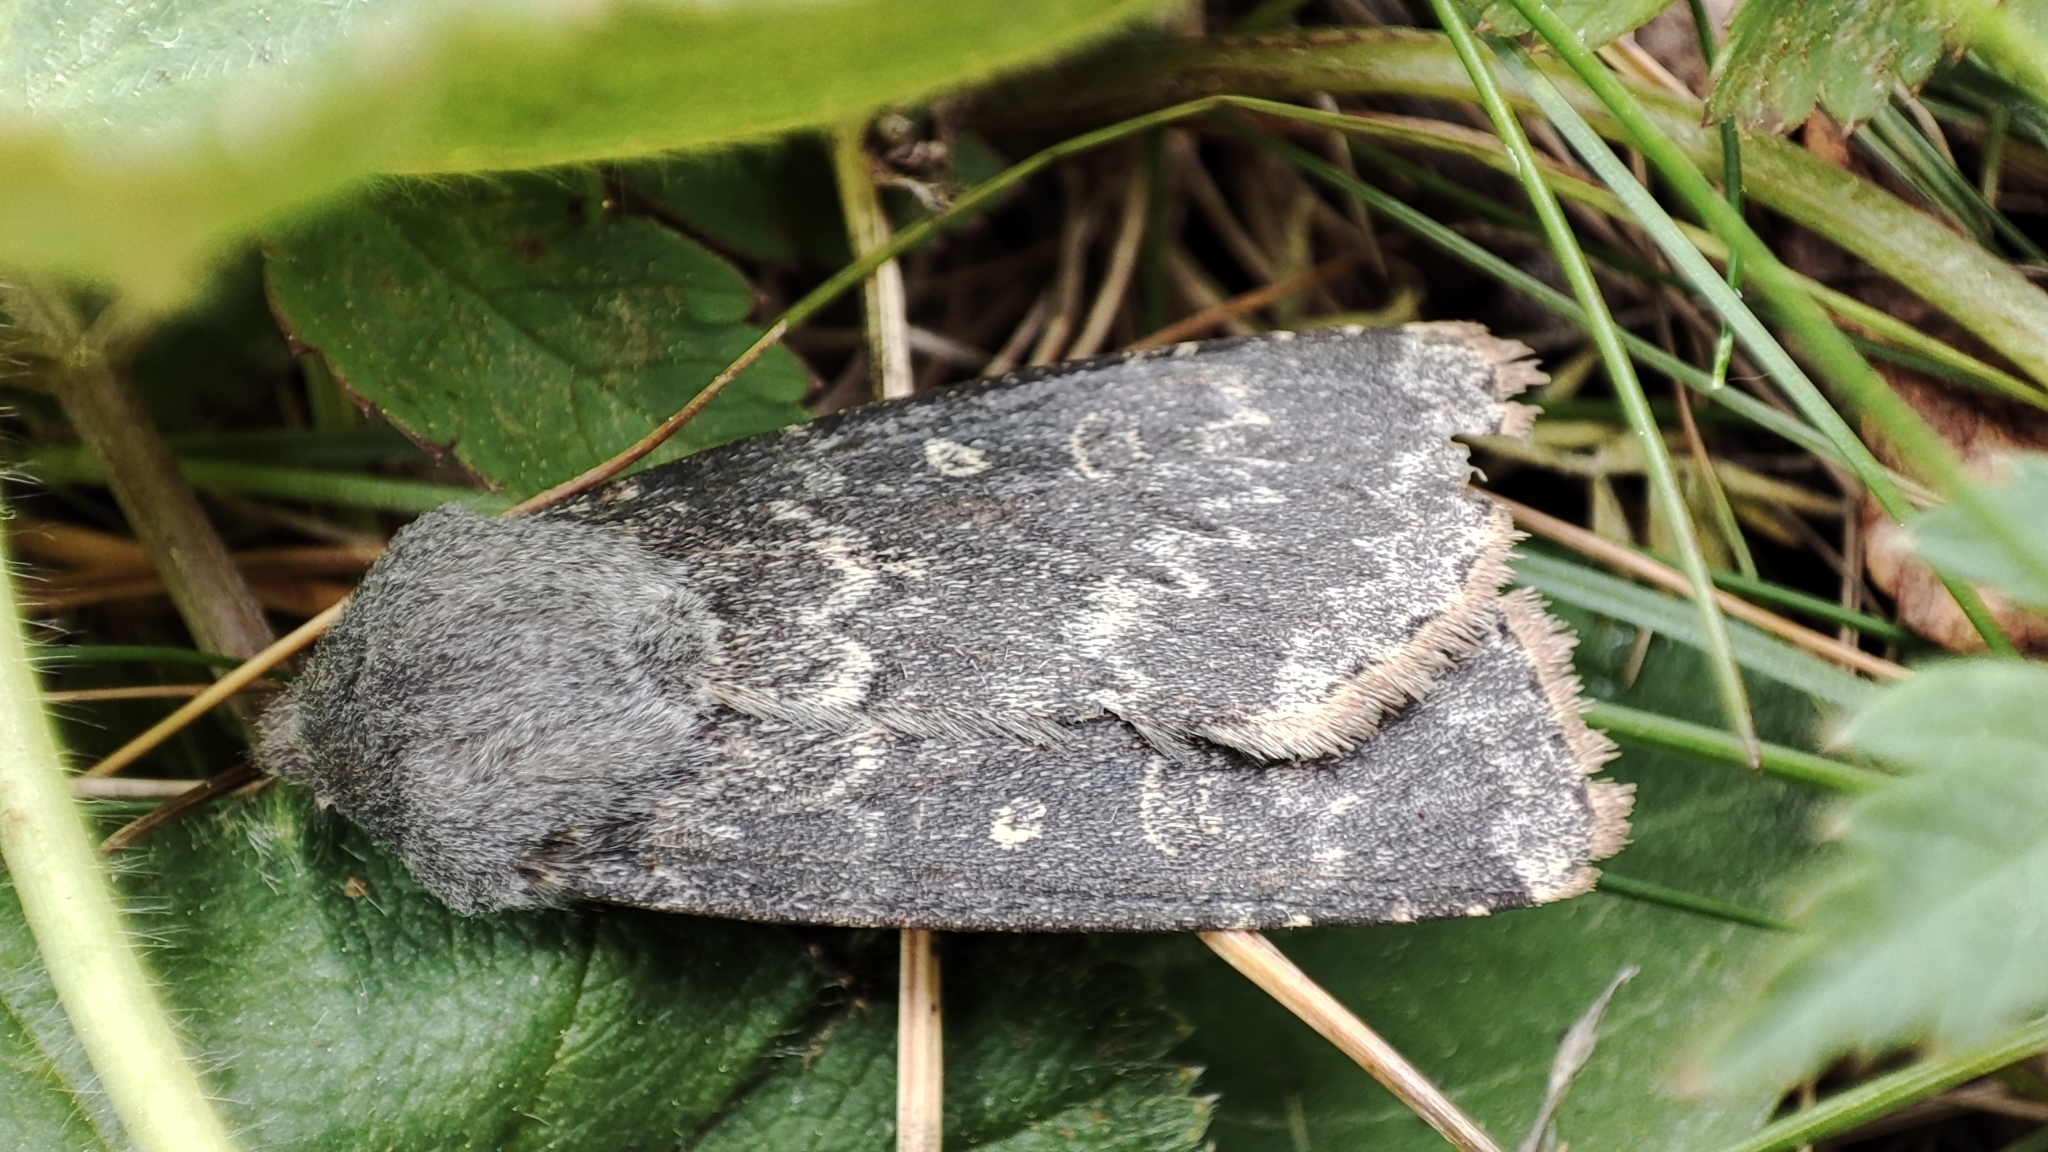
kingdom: Animalia
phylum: Arthropoda
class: Insecta
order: Lepidoptera
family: Noctuidae
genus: Dichagyris
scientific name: Dichagyris
